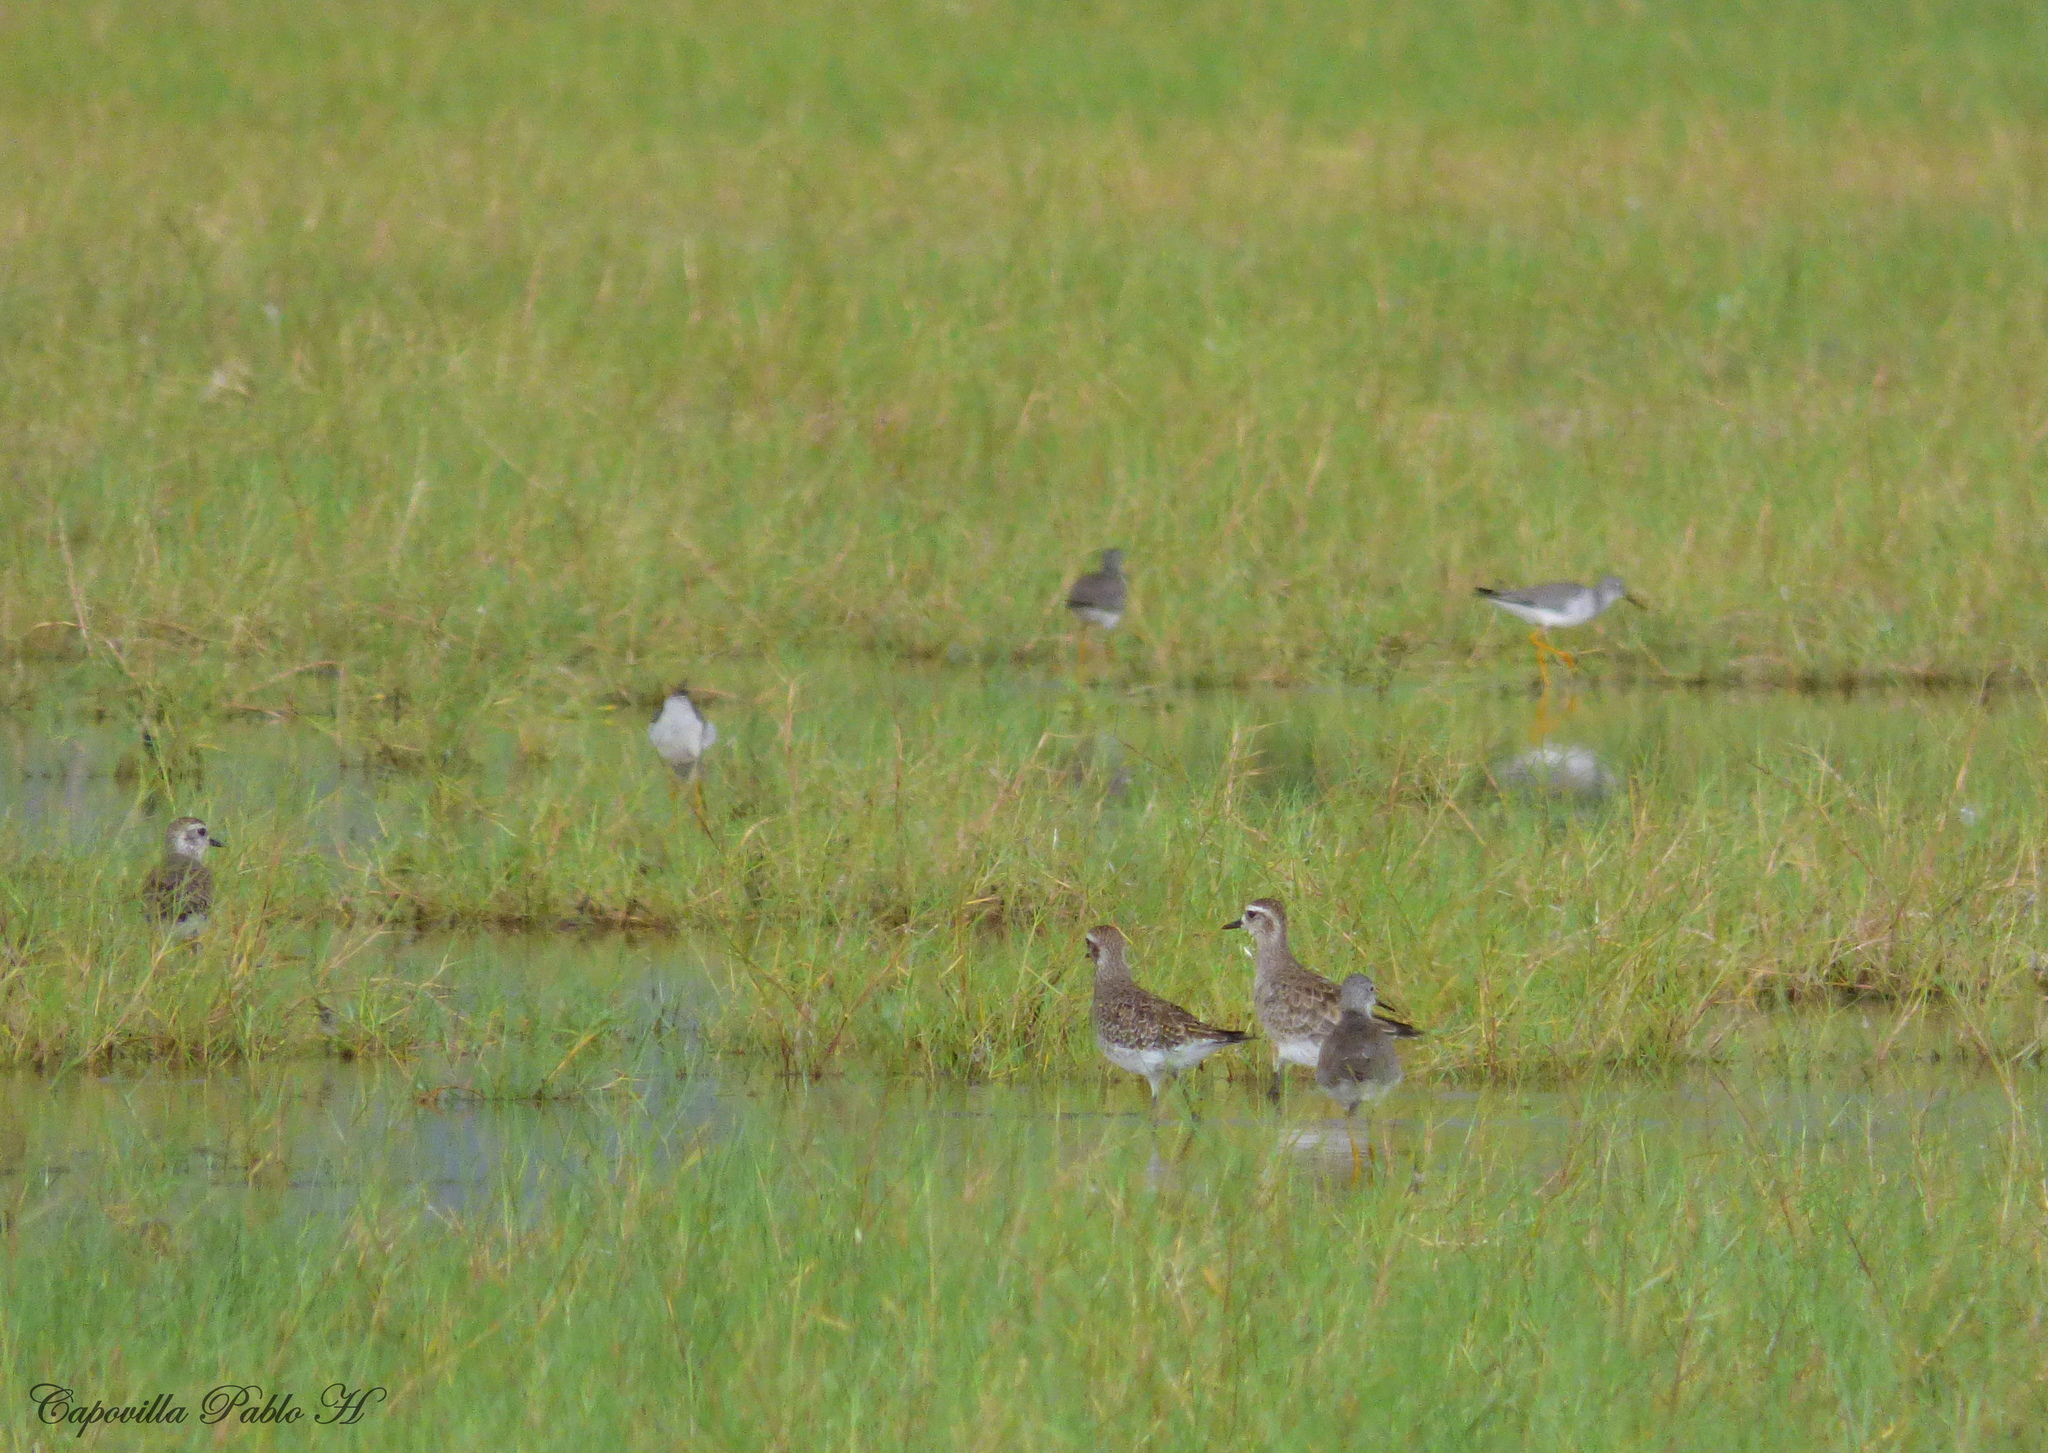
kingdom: Animalia
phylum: Chordata
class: Aves
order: Charadriiformes
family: Charadriidae
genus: Pluvialis
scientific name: Pluvialis dominica
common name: American golden plover
